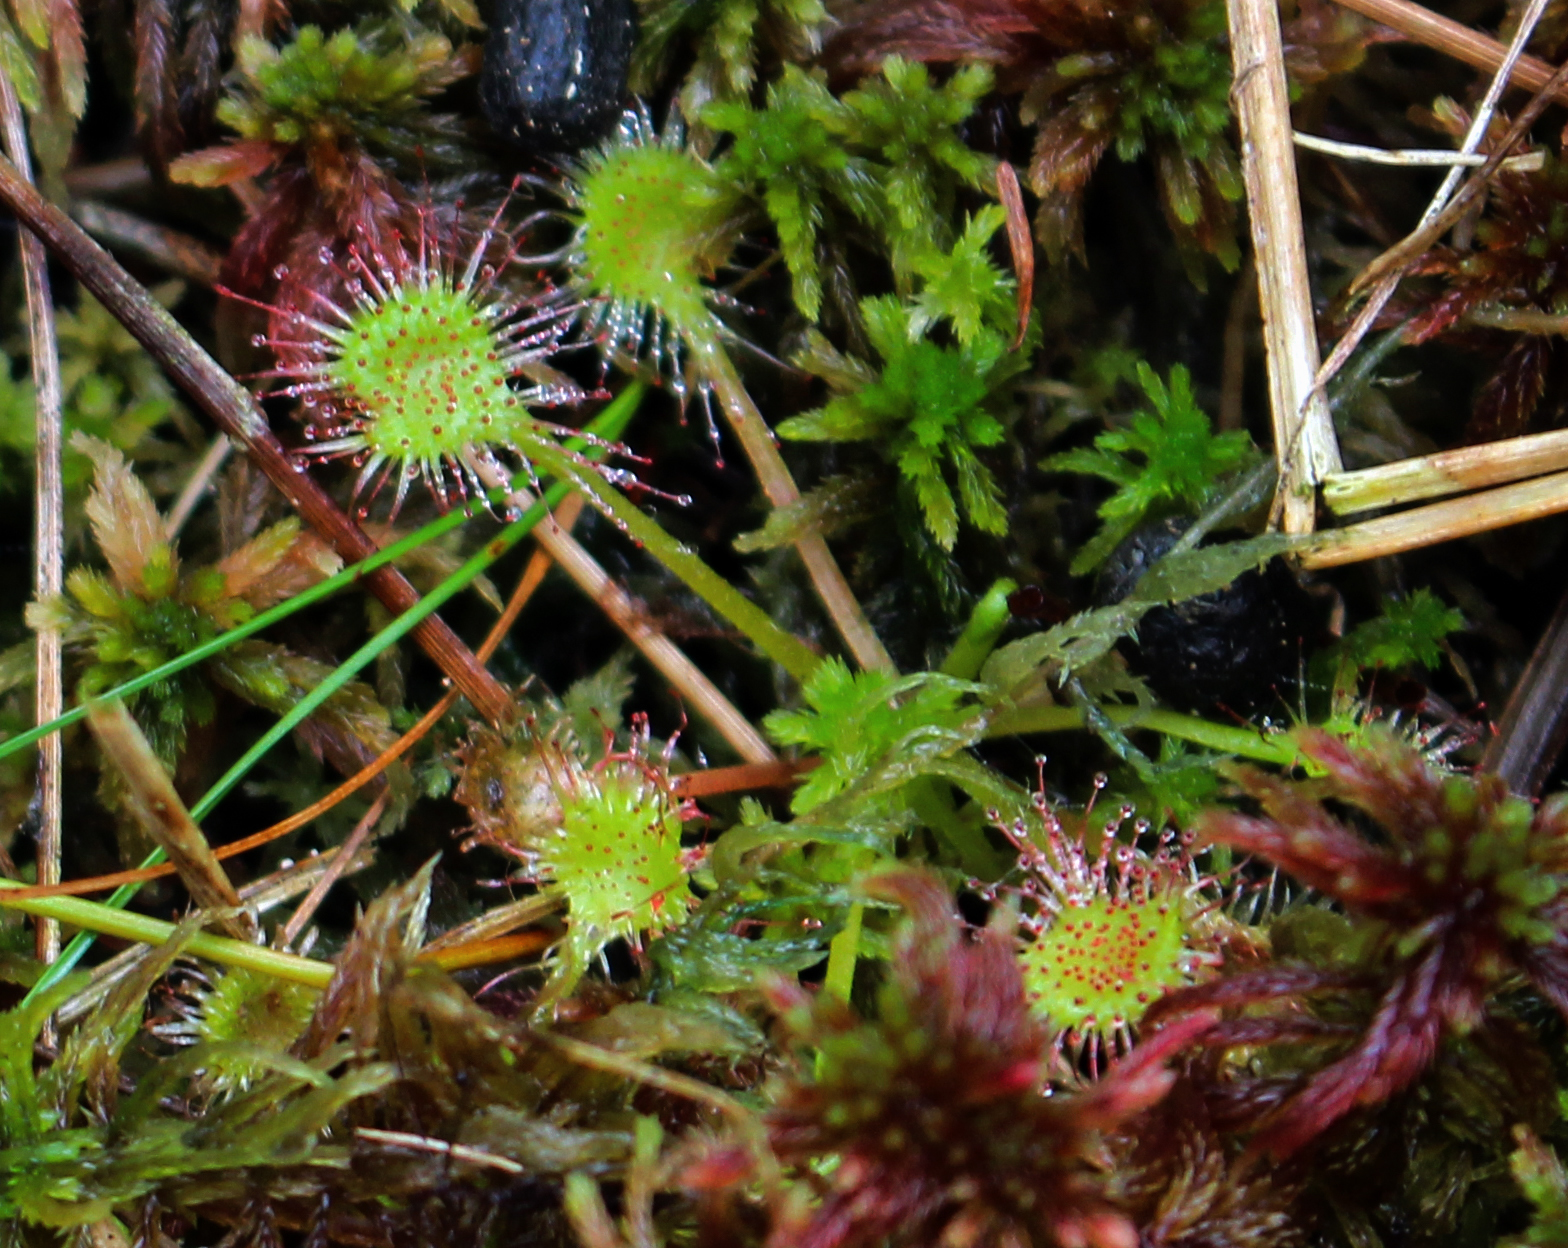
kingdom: Plantae
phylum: Tracheophyta
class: Magnoliopsida
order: Caryophyllales
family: Droseraceae
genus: Drosera
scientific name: Drosera rotundifolia
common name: Round-leaved sundew
